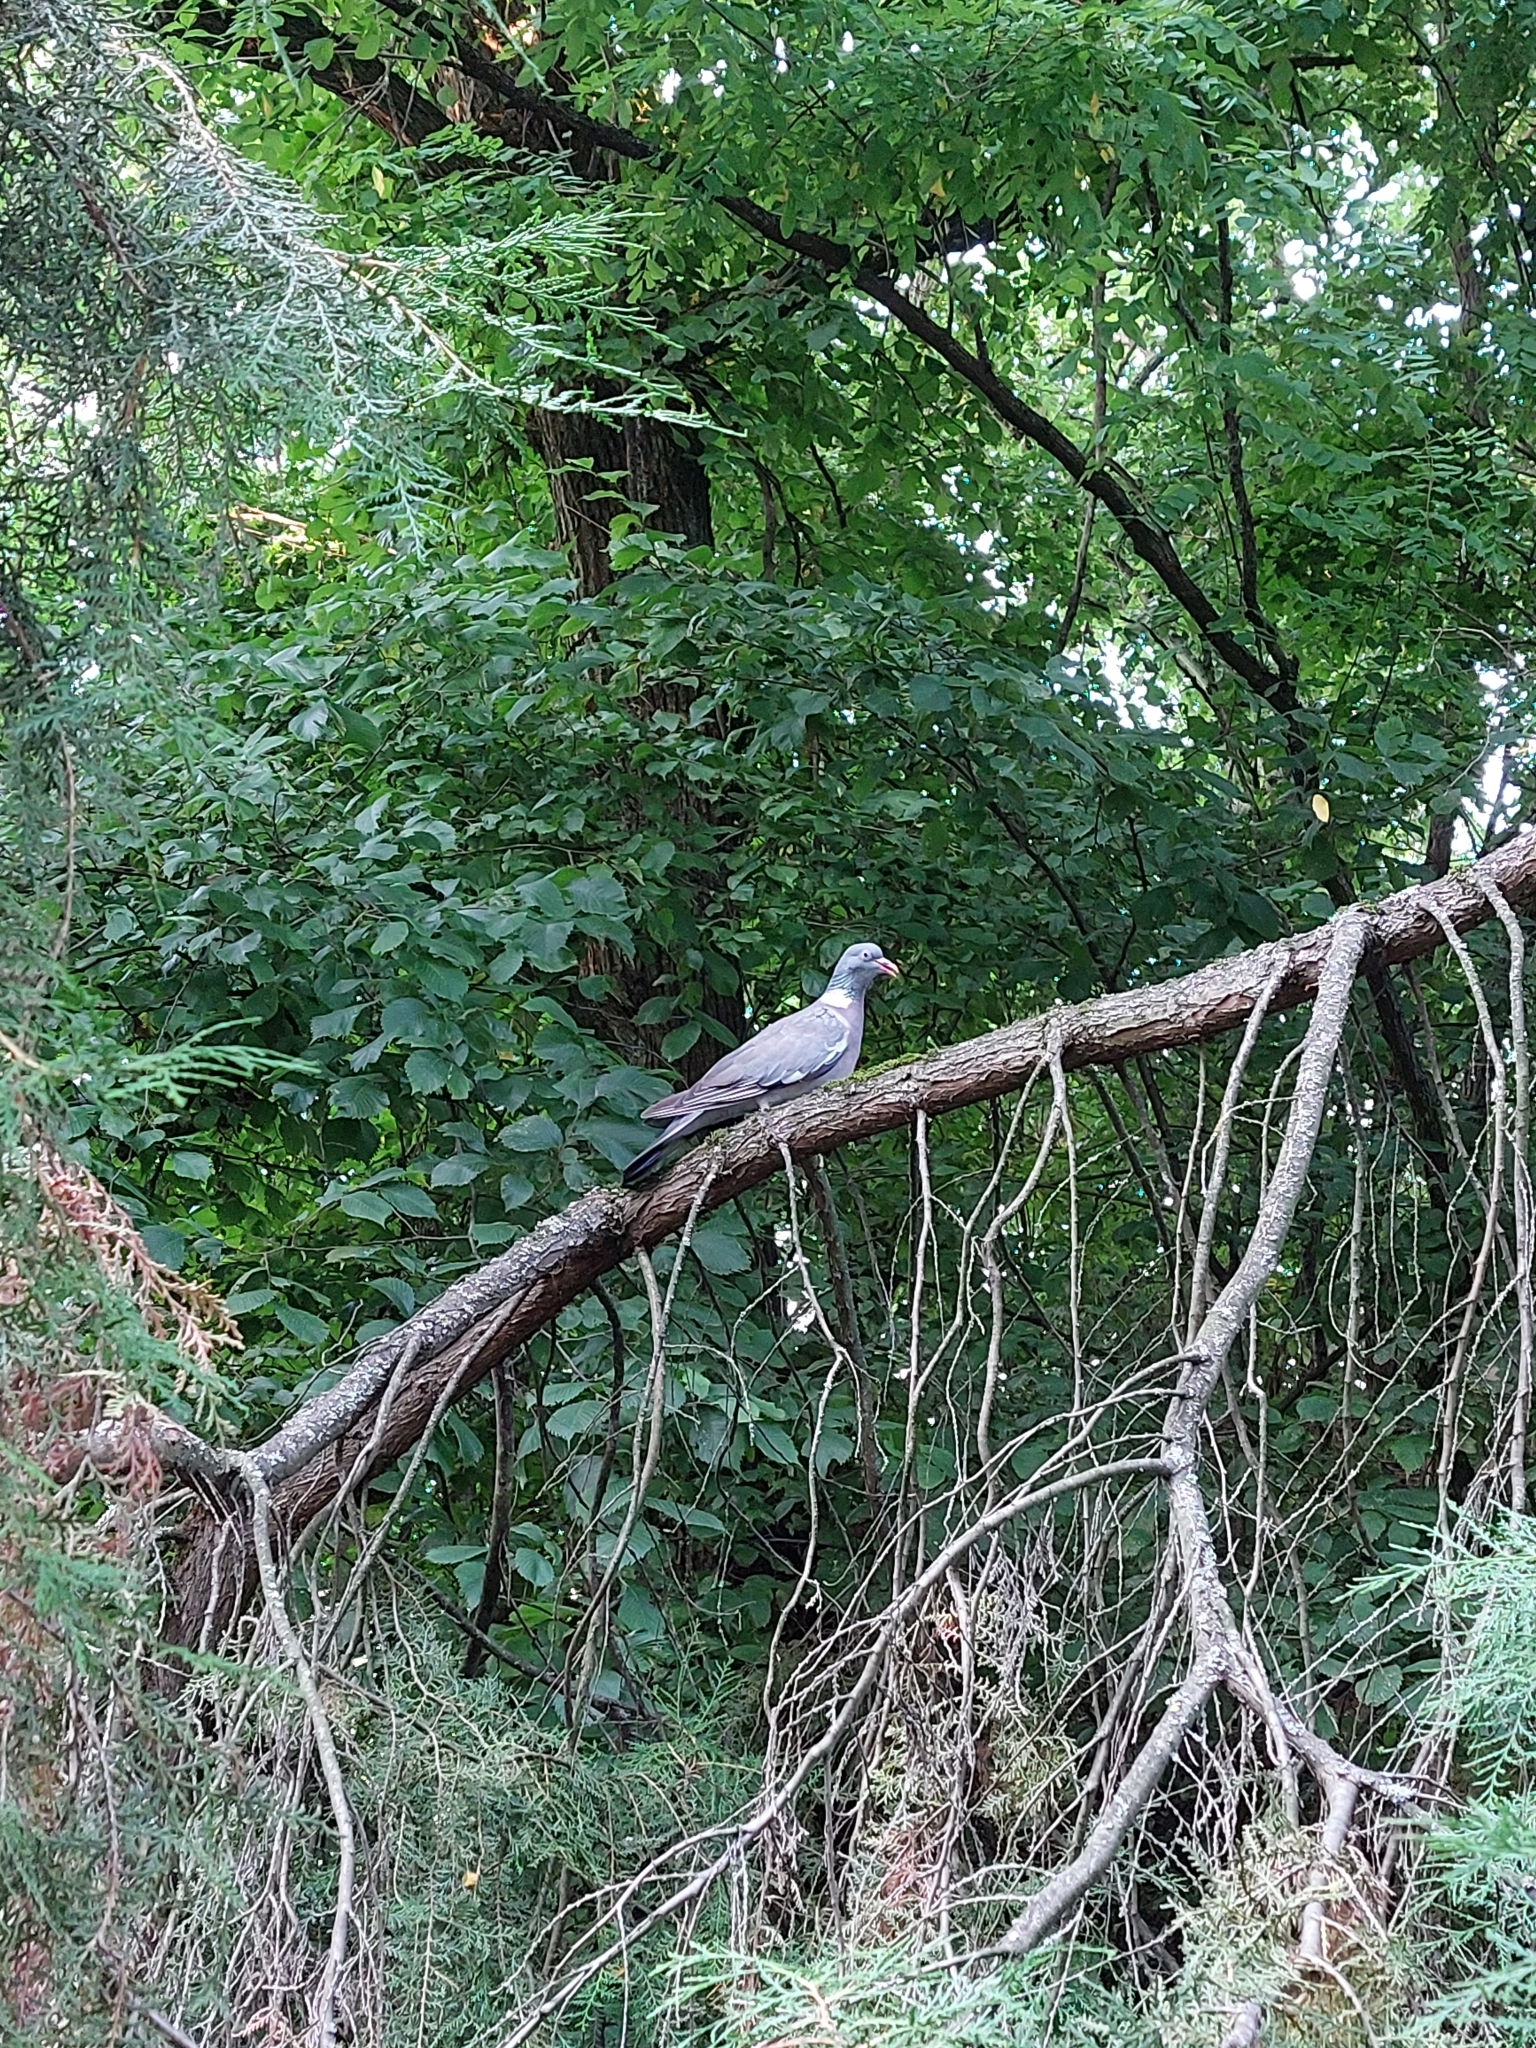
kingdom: Animalia
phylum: Chordata
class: Aves
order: Columbiformes
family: Columbidae
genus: Columba
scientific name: Columba palumbus
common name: Common wood pigeon
